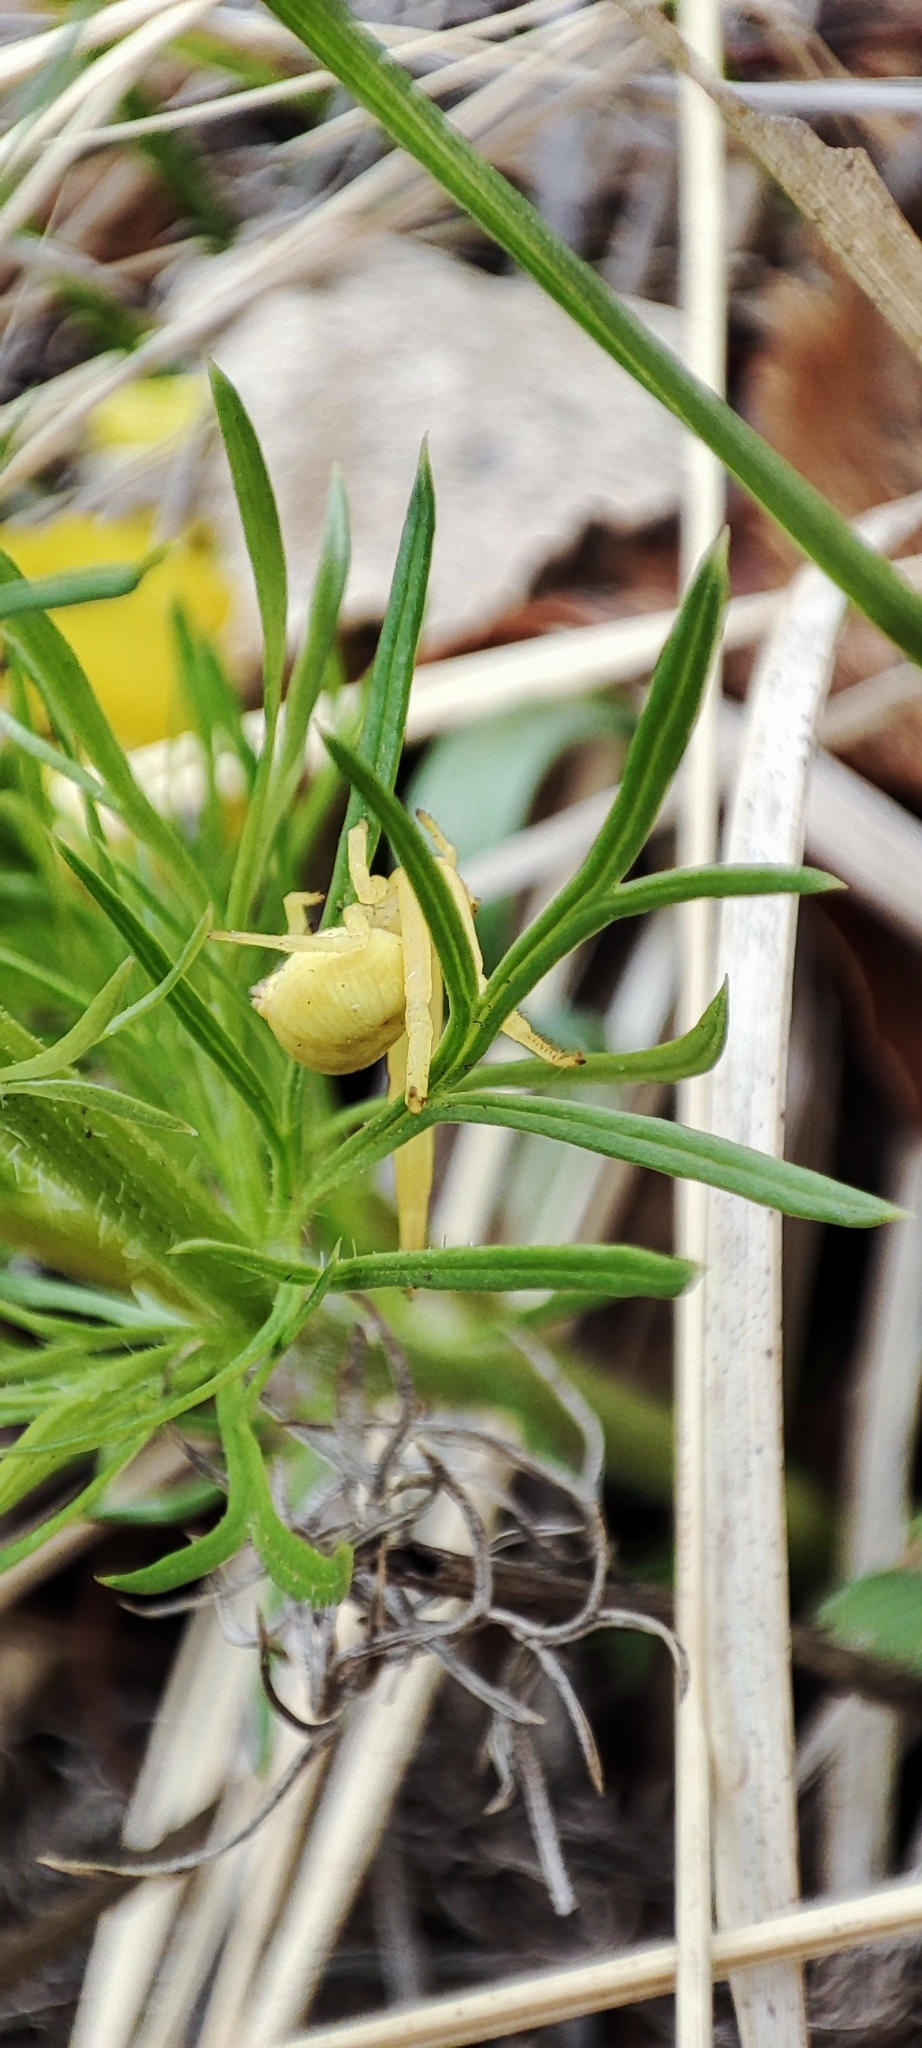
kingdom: Plantae
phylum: Tracheophyta
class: Magnoliopsida
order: Ranunculales
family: Ranunculaceae
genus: Adonis
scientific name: Adonis vernalis
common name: Yellow pheasants-eye
